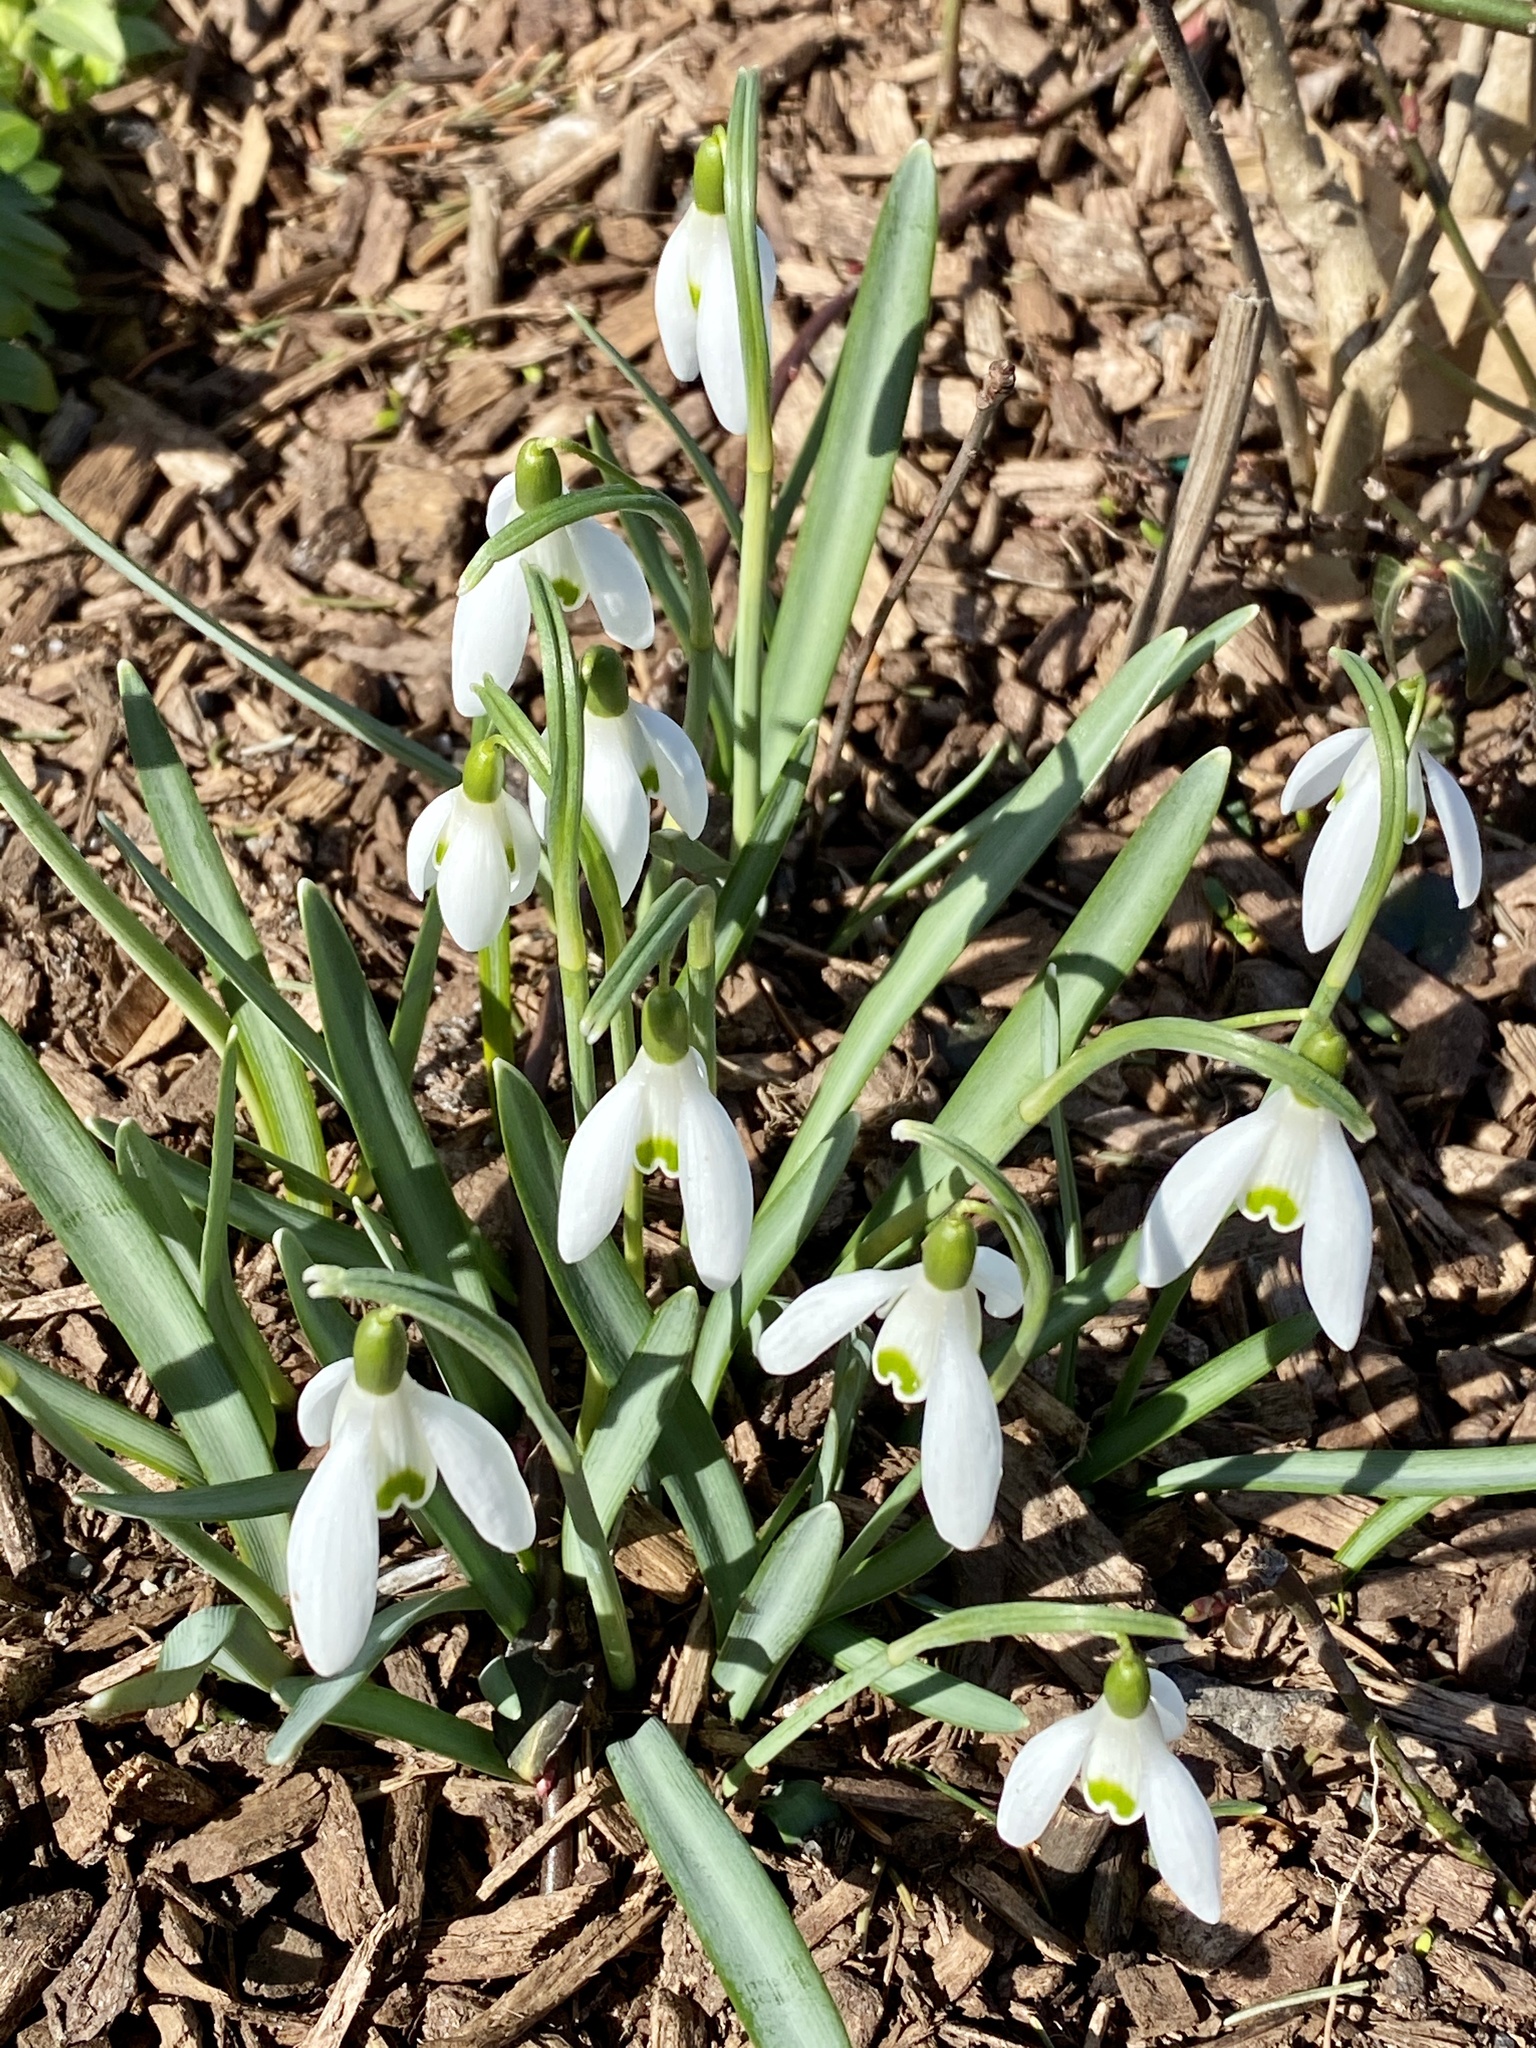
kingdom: Plantae
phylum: Tracheophyta
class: Liliopsida
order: Asparagales
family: Amaryllidaceae
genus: Galanthus
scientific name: Galanthus nivalis
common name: Snowdrop
